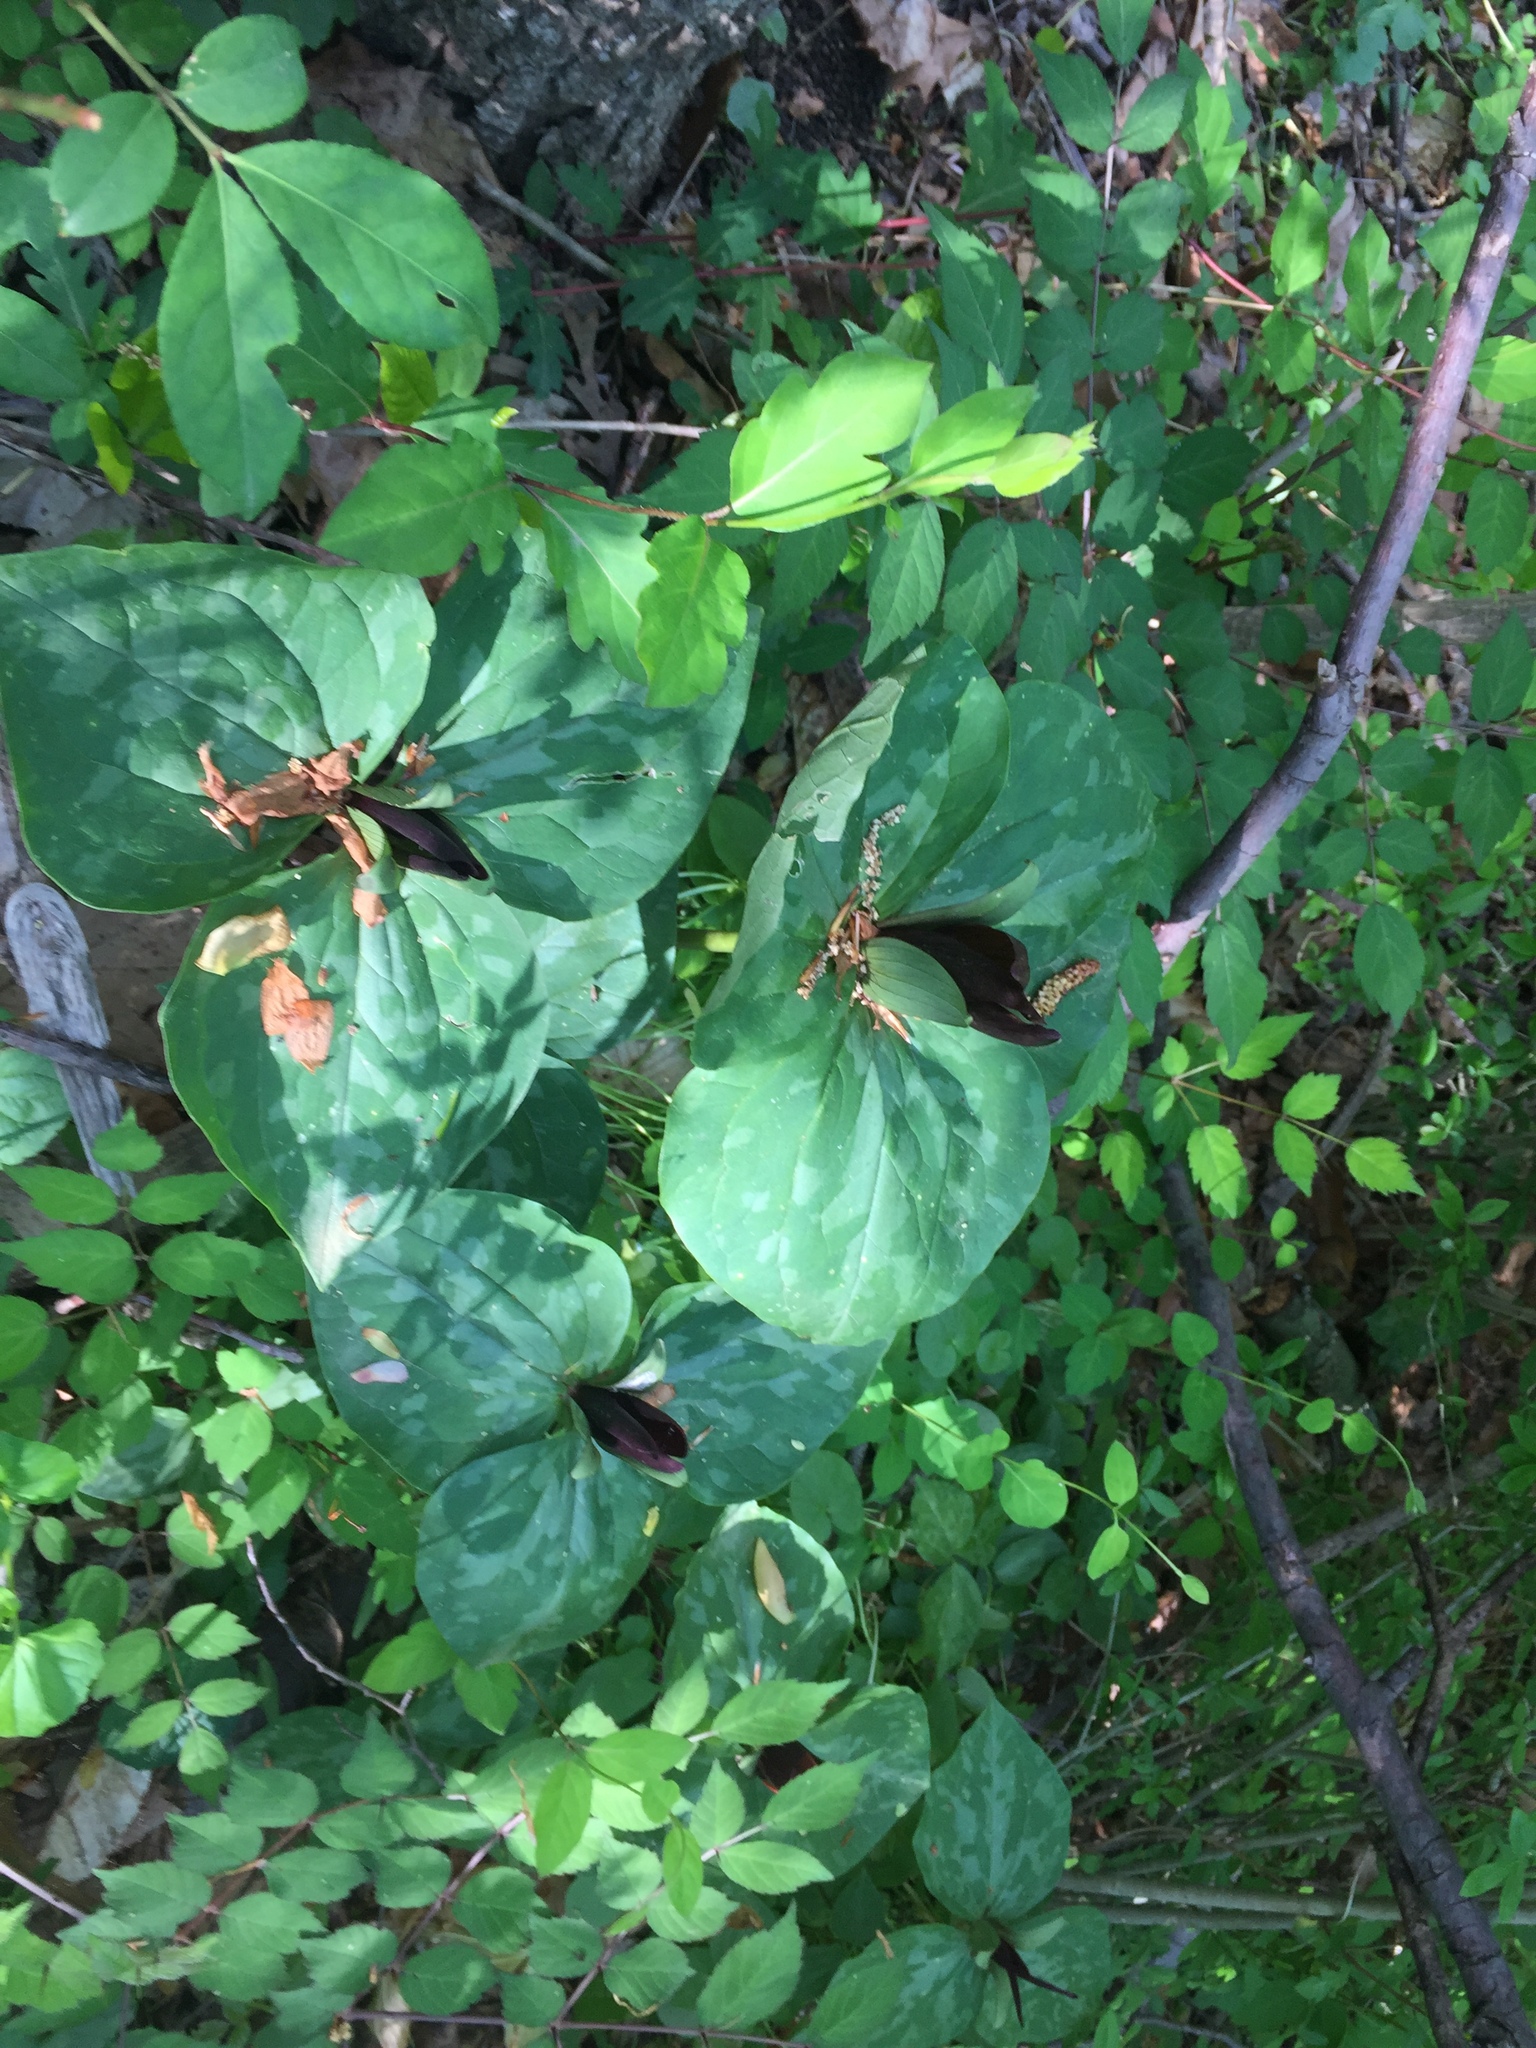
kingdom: Plantae
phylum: Tracheophyta
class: Liliopsida
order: Liliales
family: Melanthiaceae
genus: Trillium
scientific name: Trillium cuneatum
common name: Cuneate trillium
